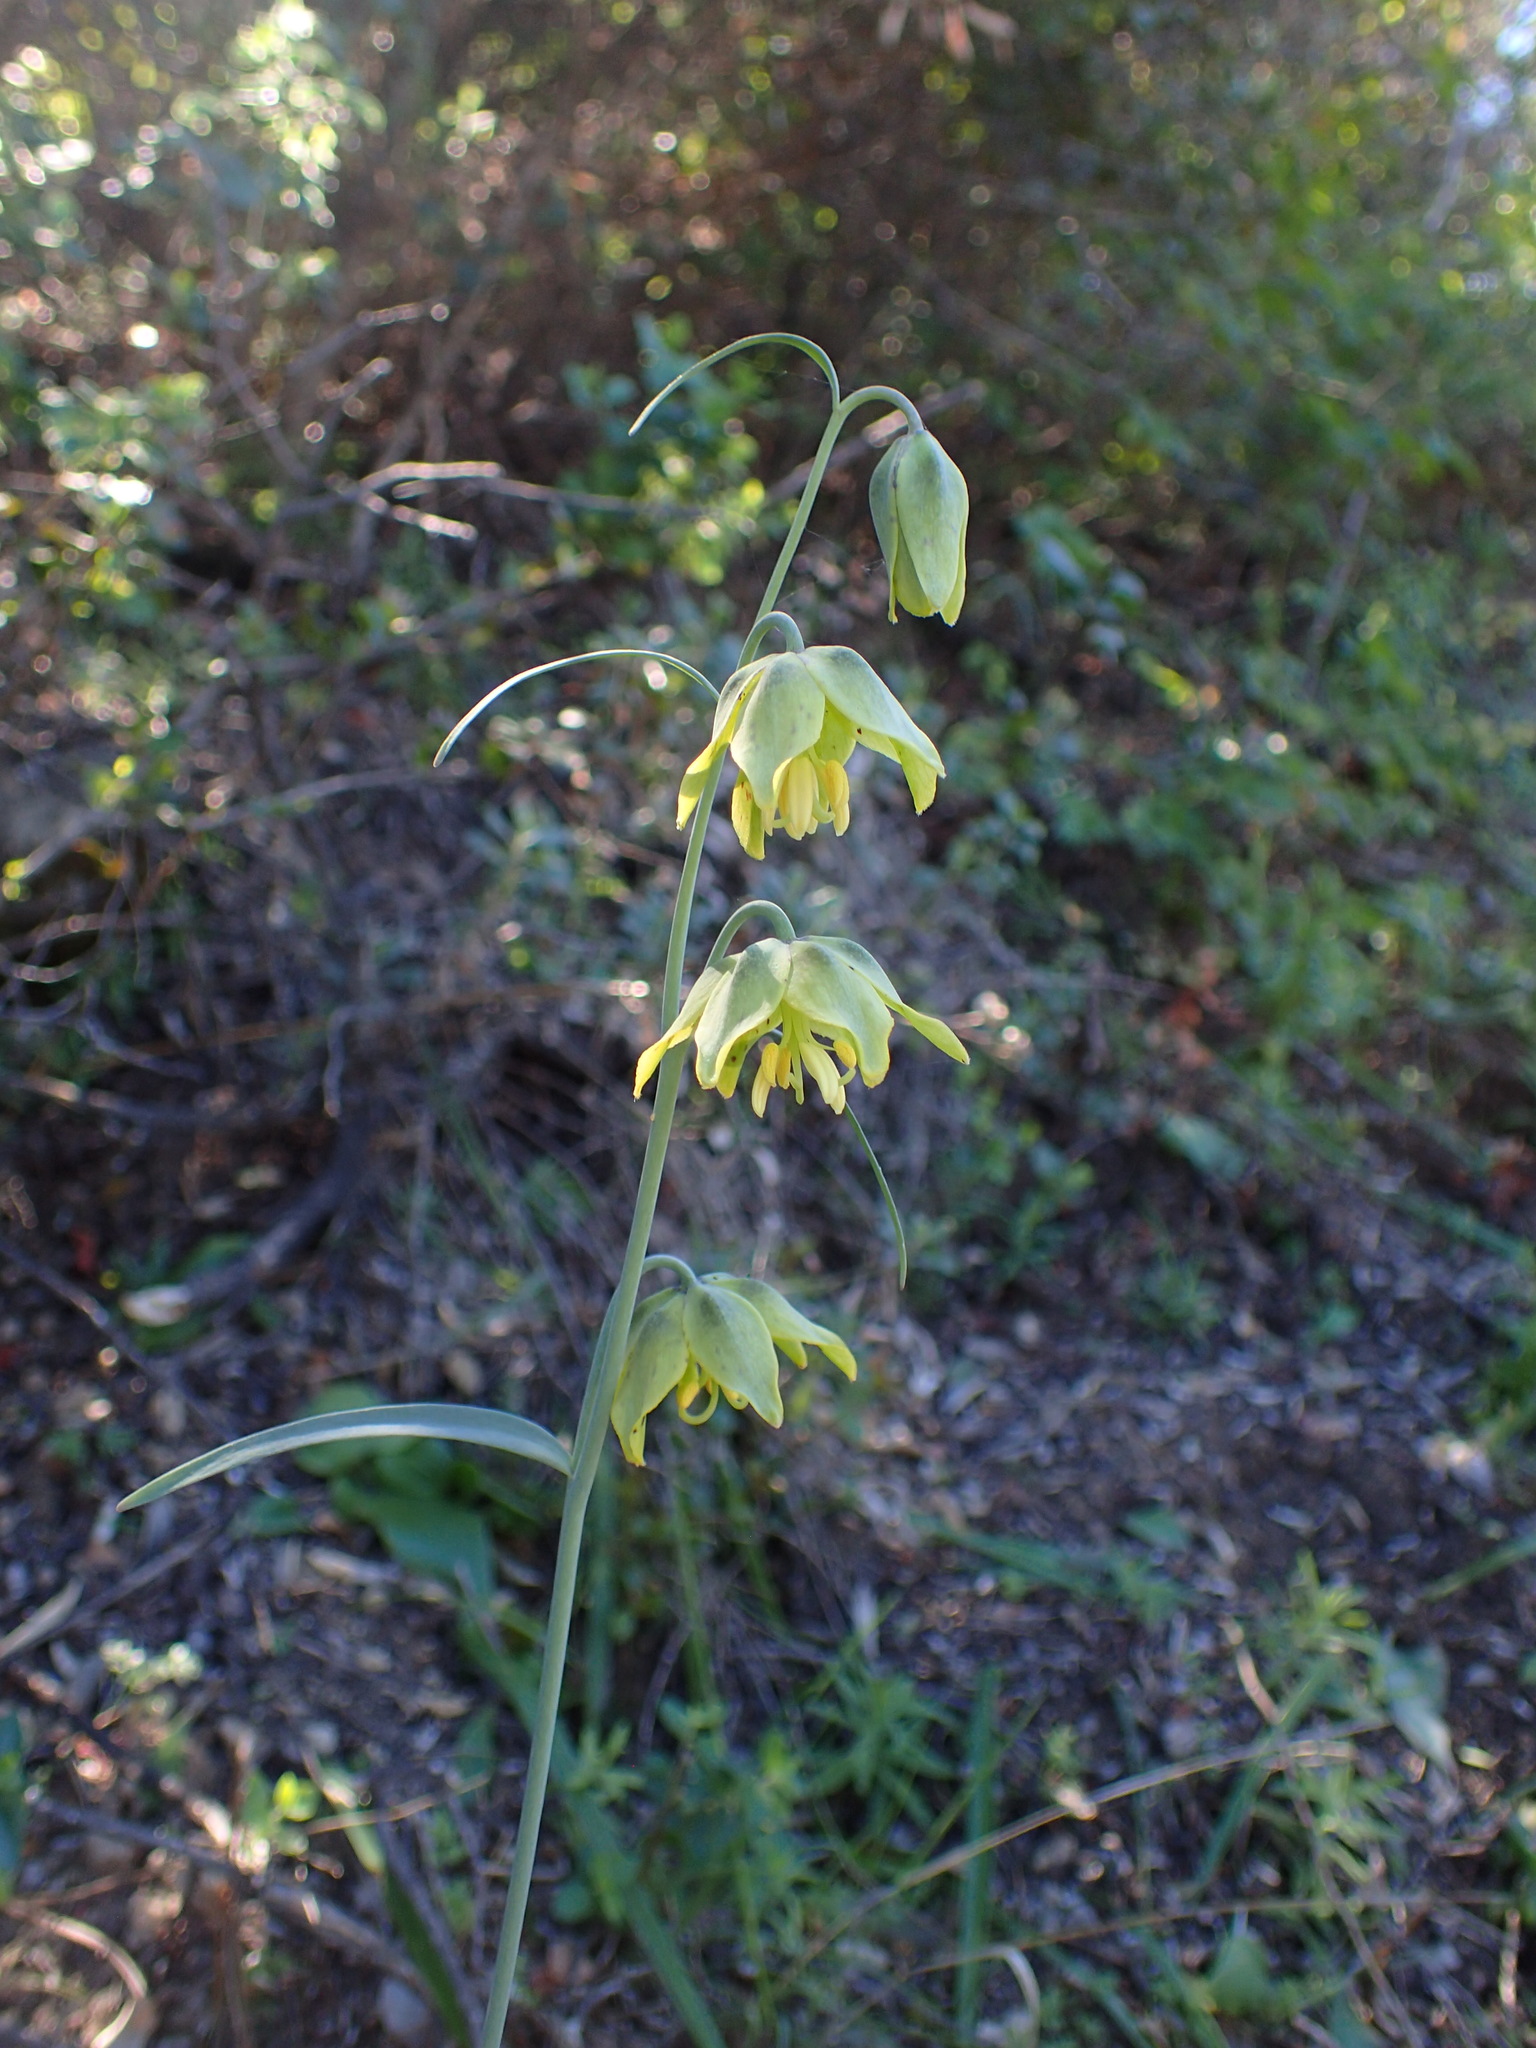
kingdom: Plantae
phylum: Tracheophyta
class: Liliopsida
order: Liliales
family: Liliaceae
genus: Fritillaria
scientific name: Fritillaria ojaiensis
